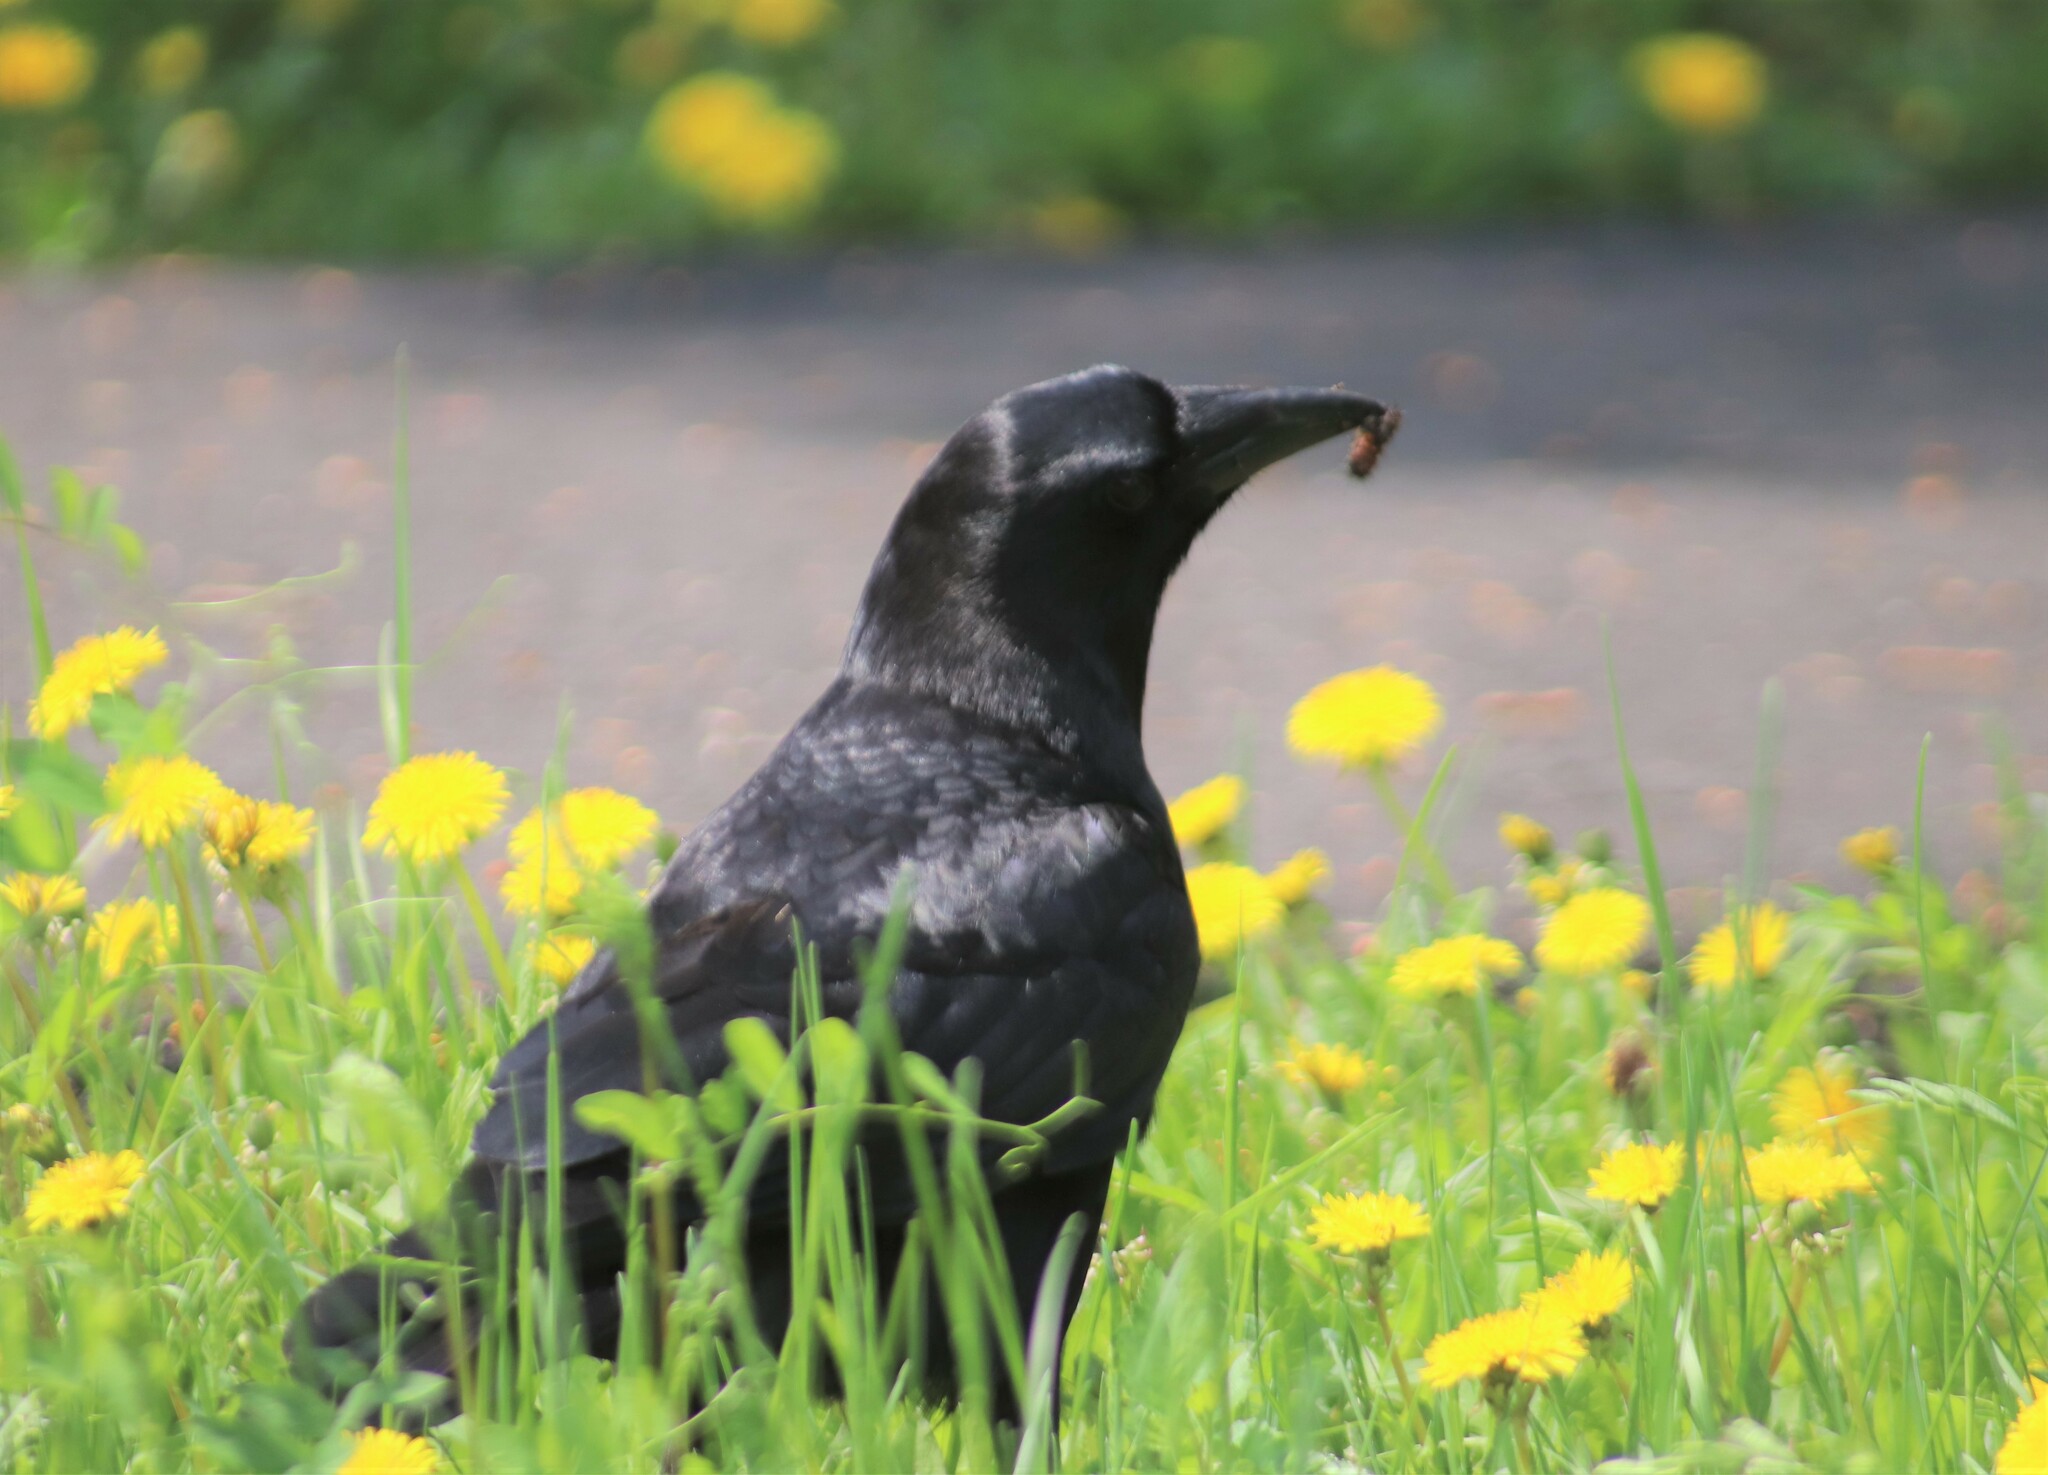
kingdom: Animalia
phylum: Chordata
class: Aves
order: Passeriformes
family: Corvidae
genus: Corvus
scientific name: Corvus brachyrhynchos
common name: American crow
